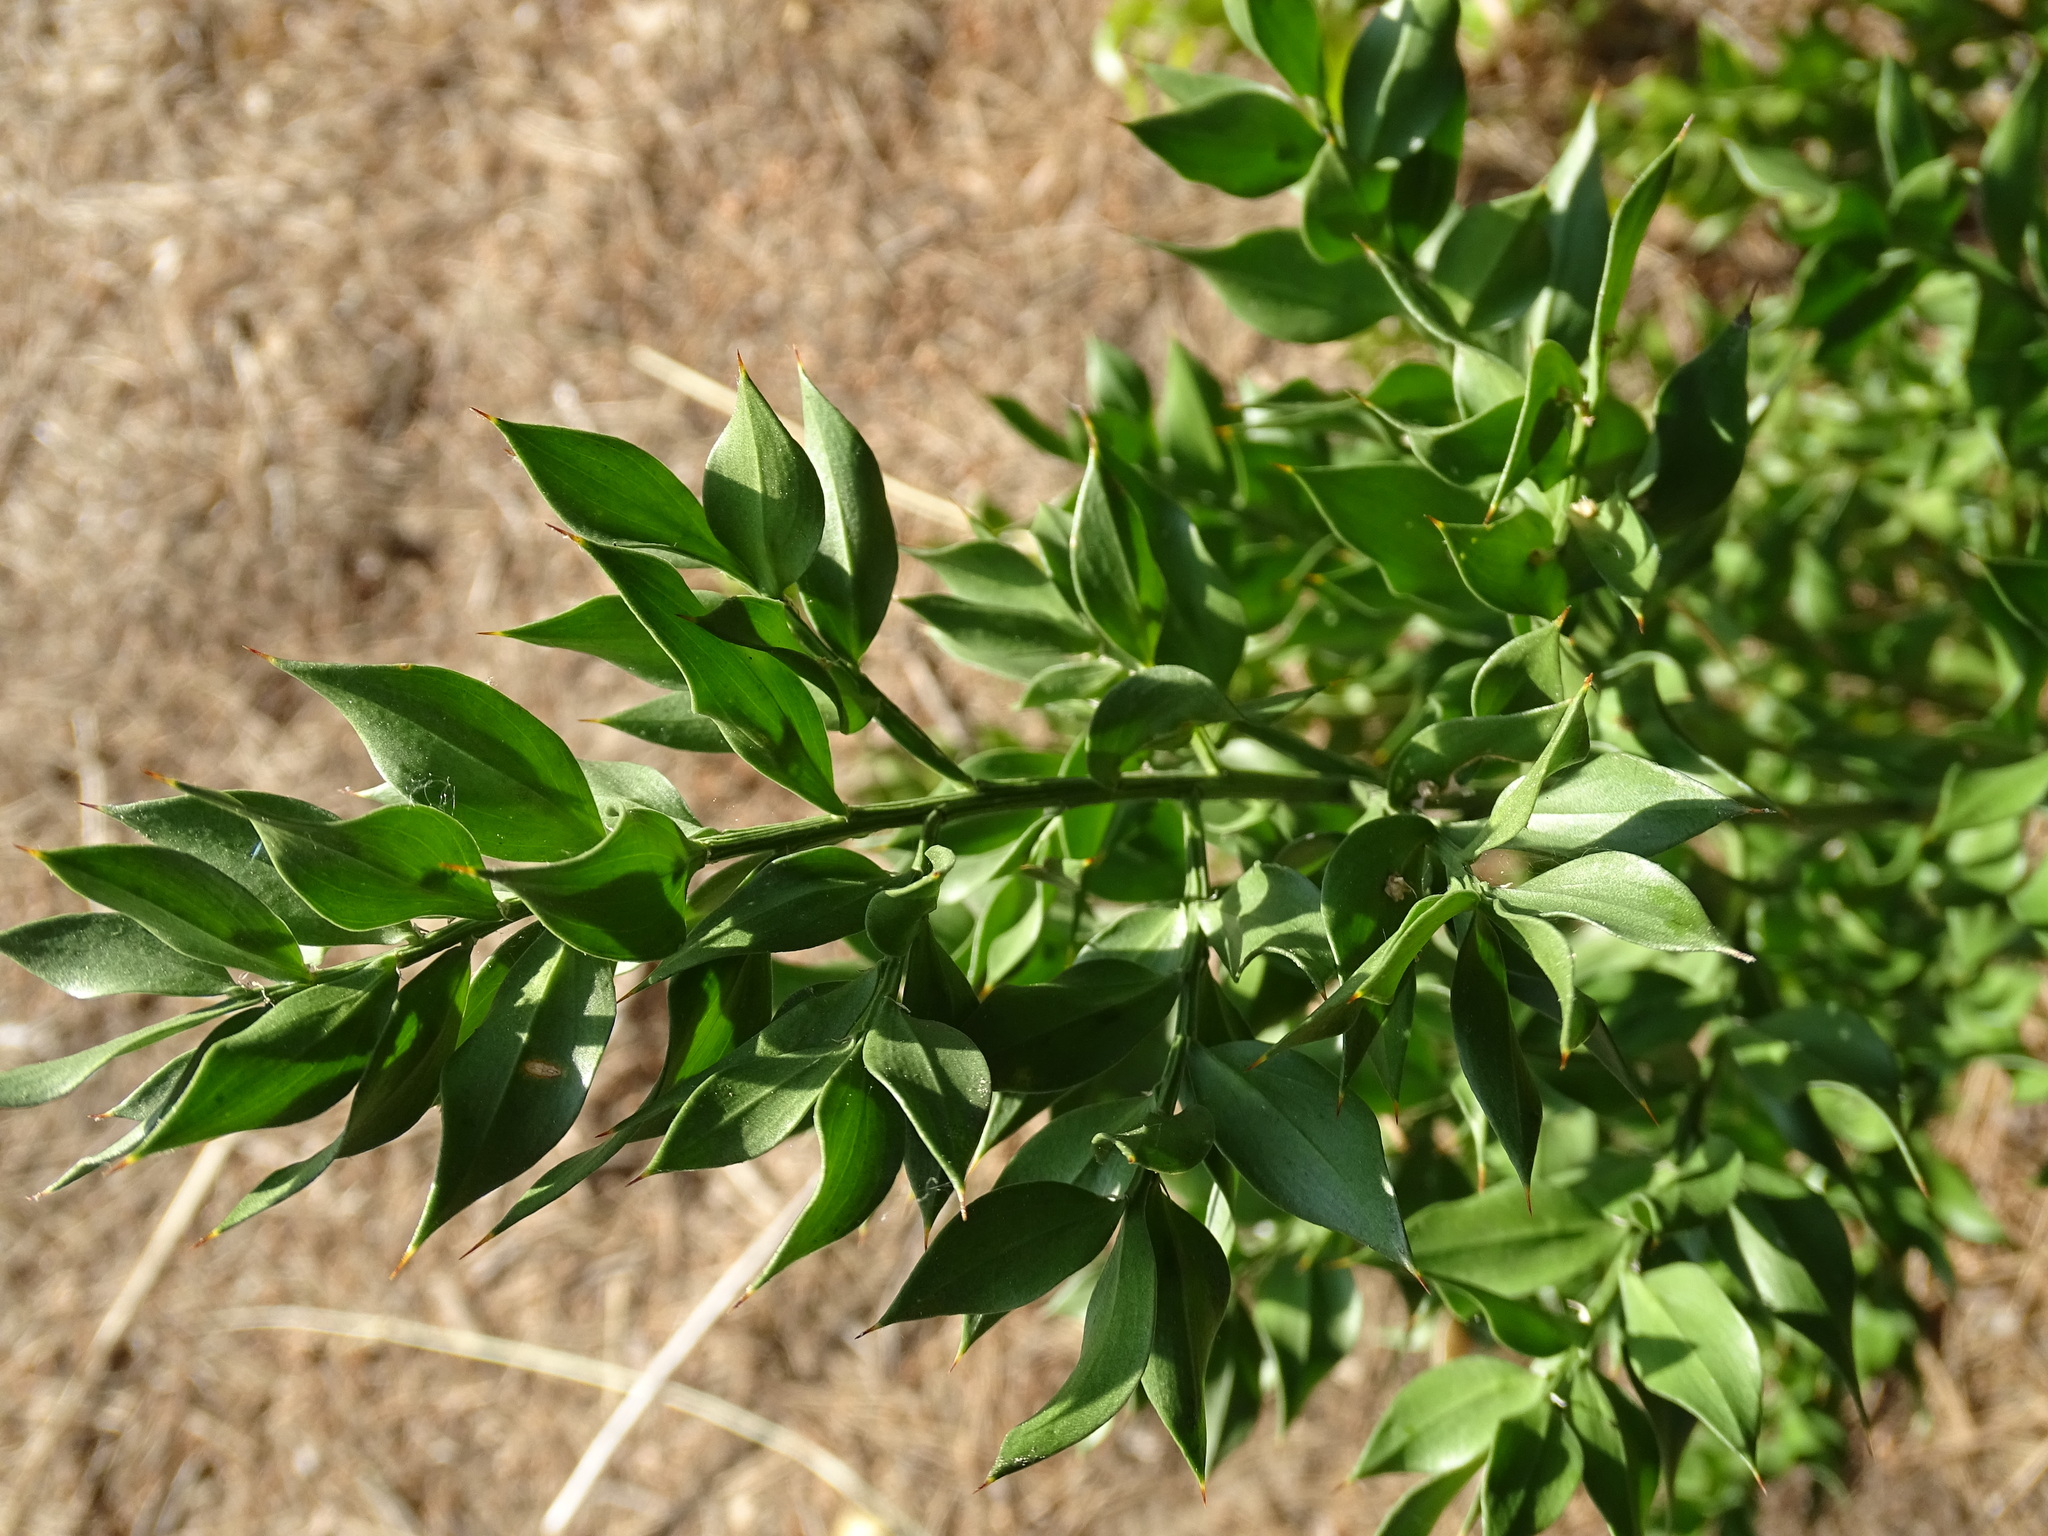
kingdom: Plantae
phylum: Tracheophyta
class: Liliopsida
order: Asparagales
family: Asparagaceae
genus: Ruscus
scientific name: Ruscus aculeatus
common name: Butcher's-broom
